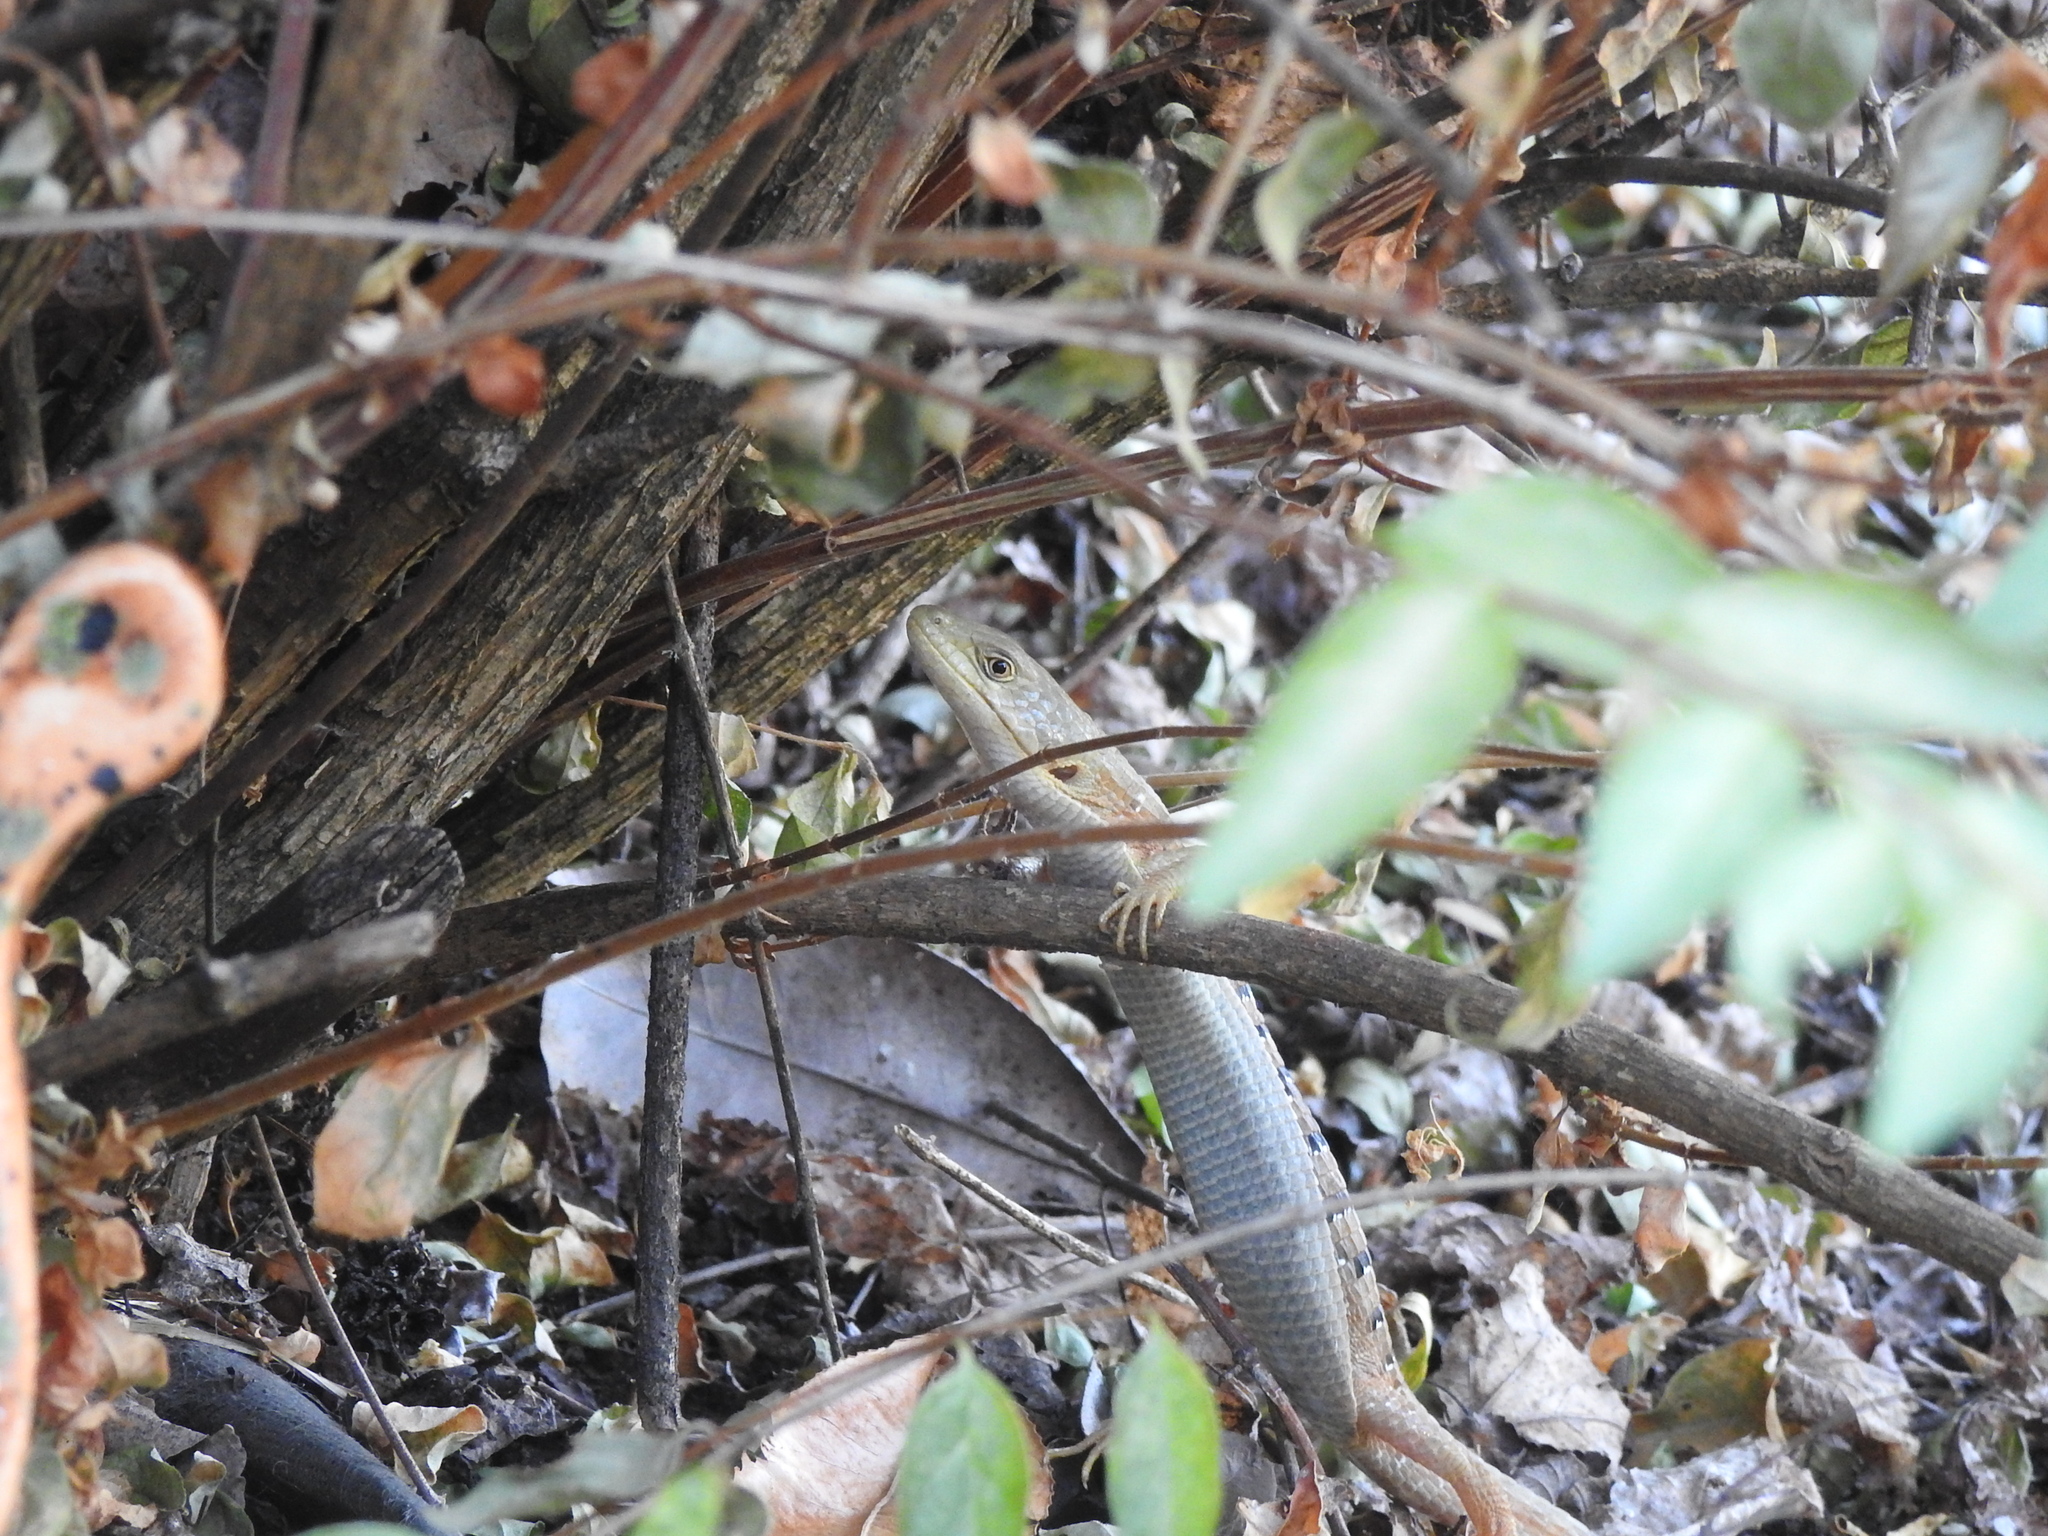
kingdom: Animalia
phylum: Chordata
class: Squamata
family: Anguidae
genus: Elgaria
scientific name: Elgaria multicarinata
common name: Southern alligator lizard
